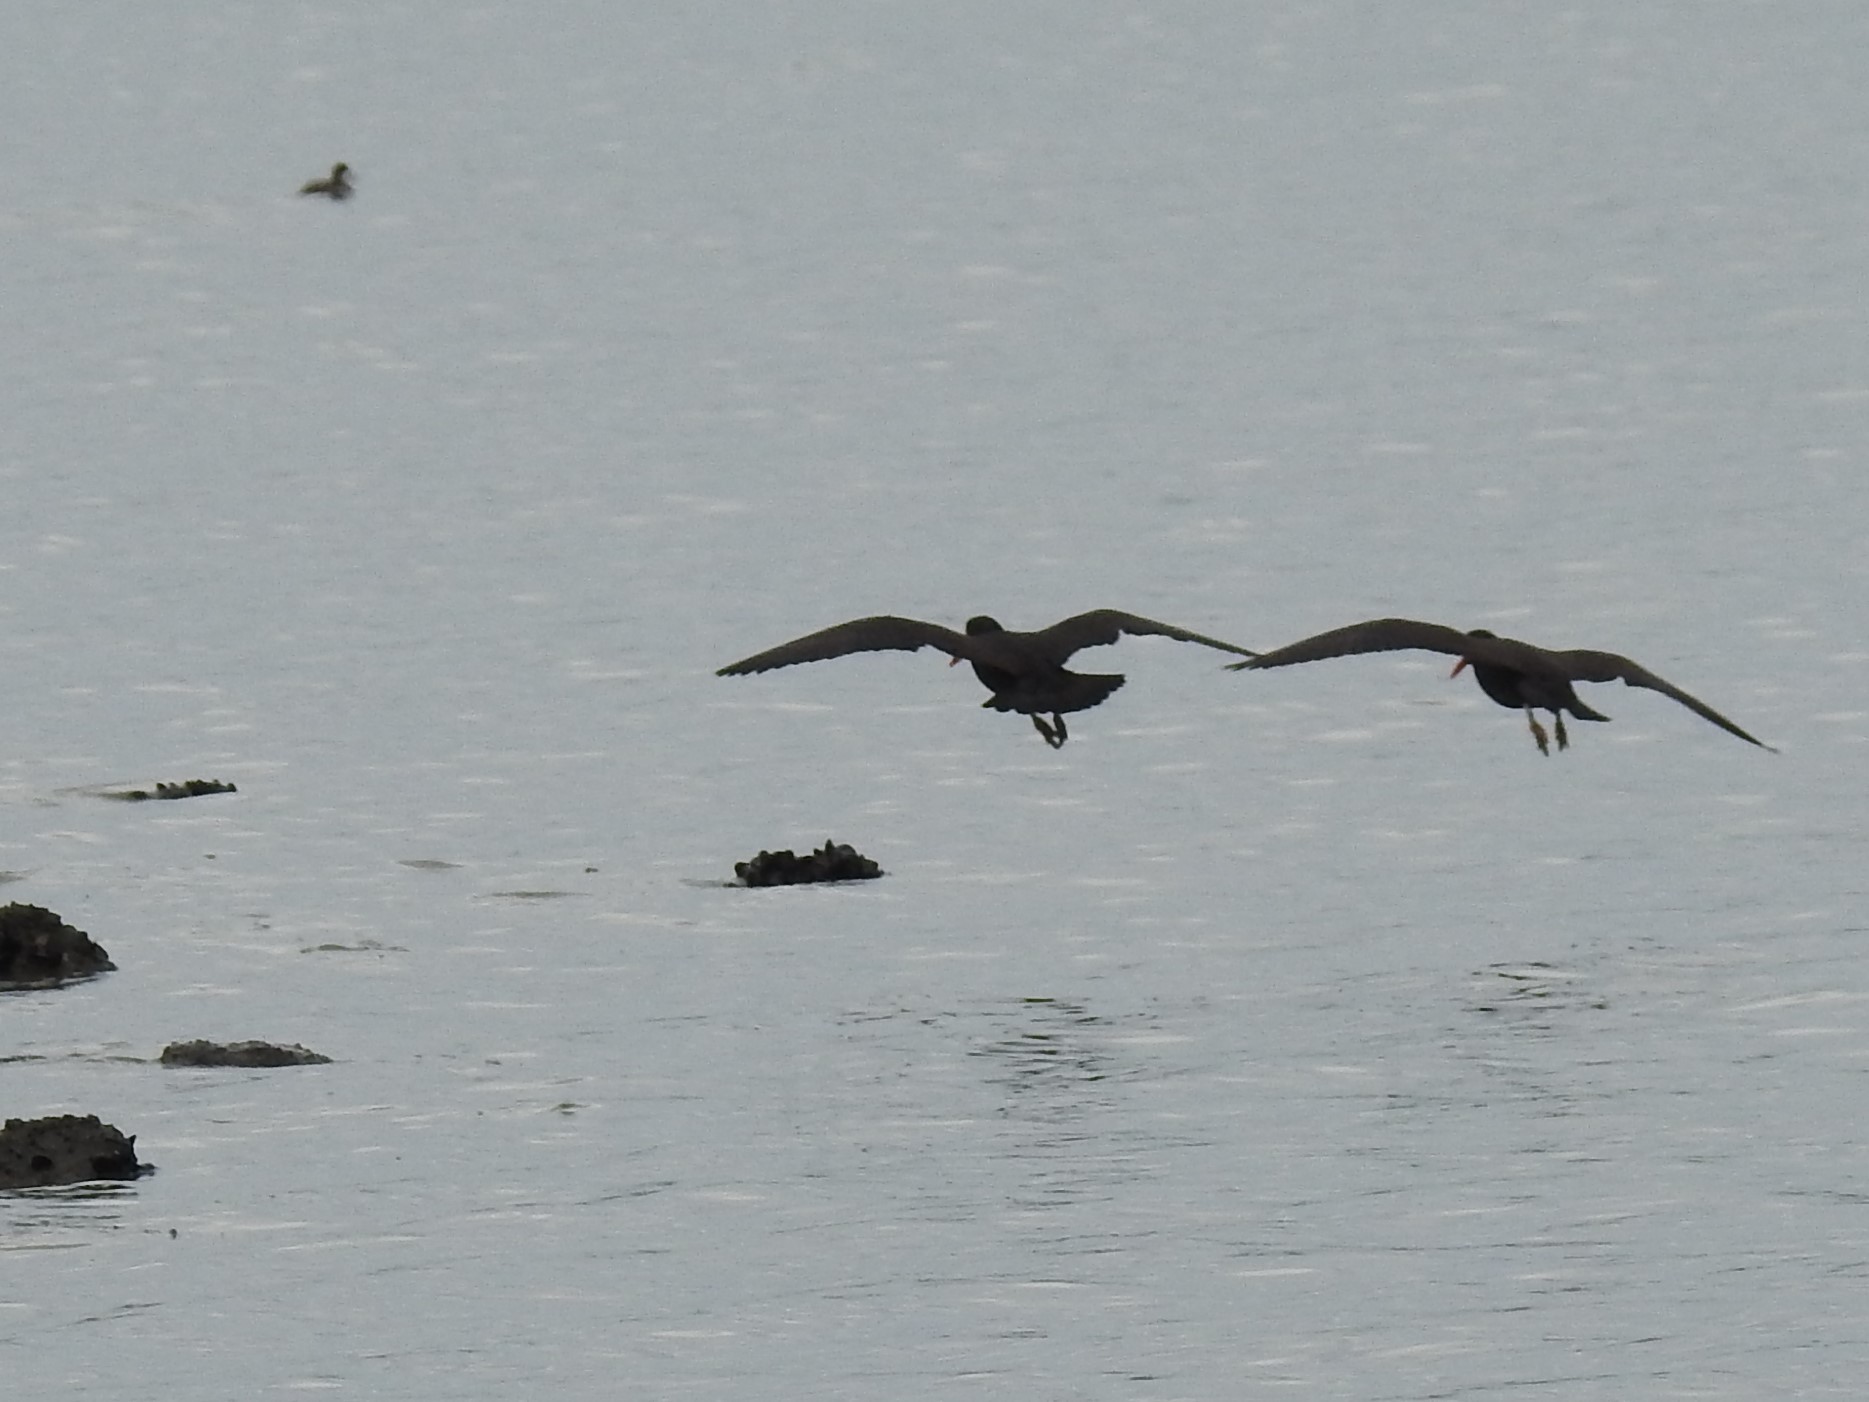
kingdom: Animalia
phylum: Chordata
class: Aves
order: Charadriiformes
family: Haematopodidae
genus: Haematopus
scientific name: Haematopus bachmani
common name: Black oystercatcher
